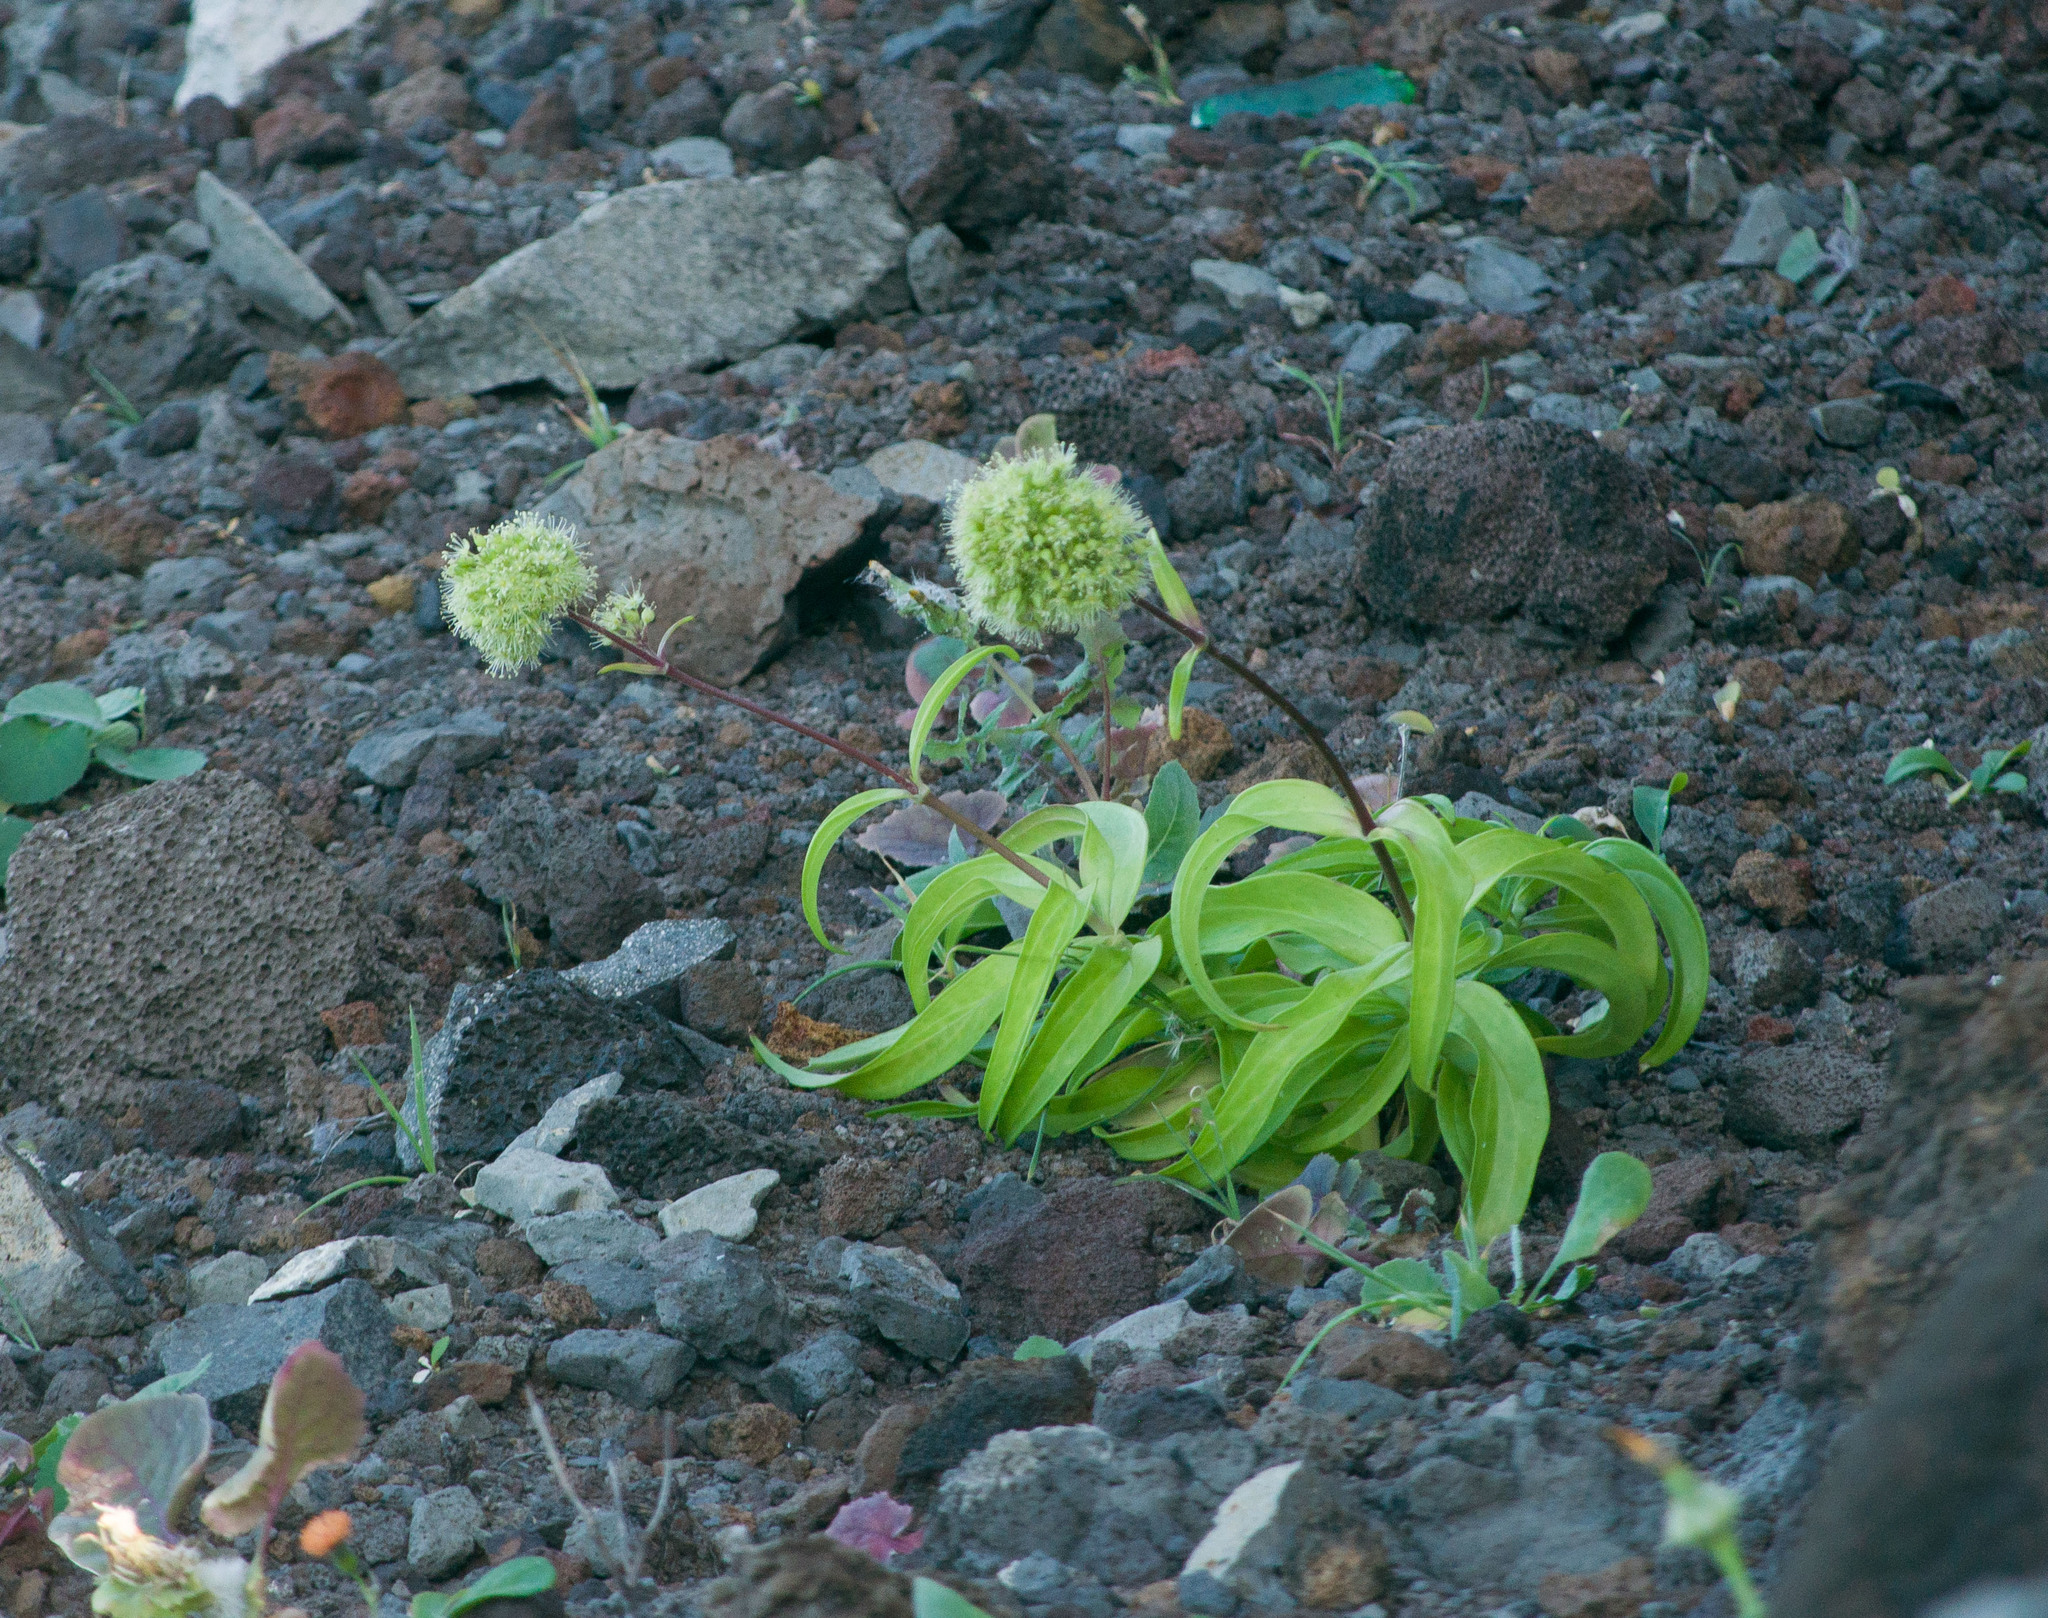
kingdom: Plantae
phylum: Tracheophyta
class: Magnoliopsida
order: Caryophyllales
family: Caryophyllaceae
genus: Schiedea
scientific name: Schiedea globosa
